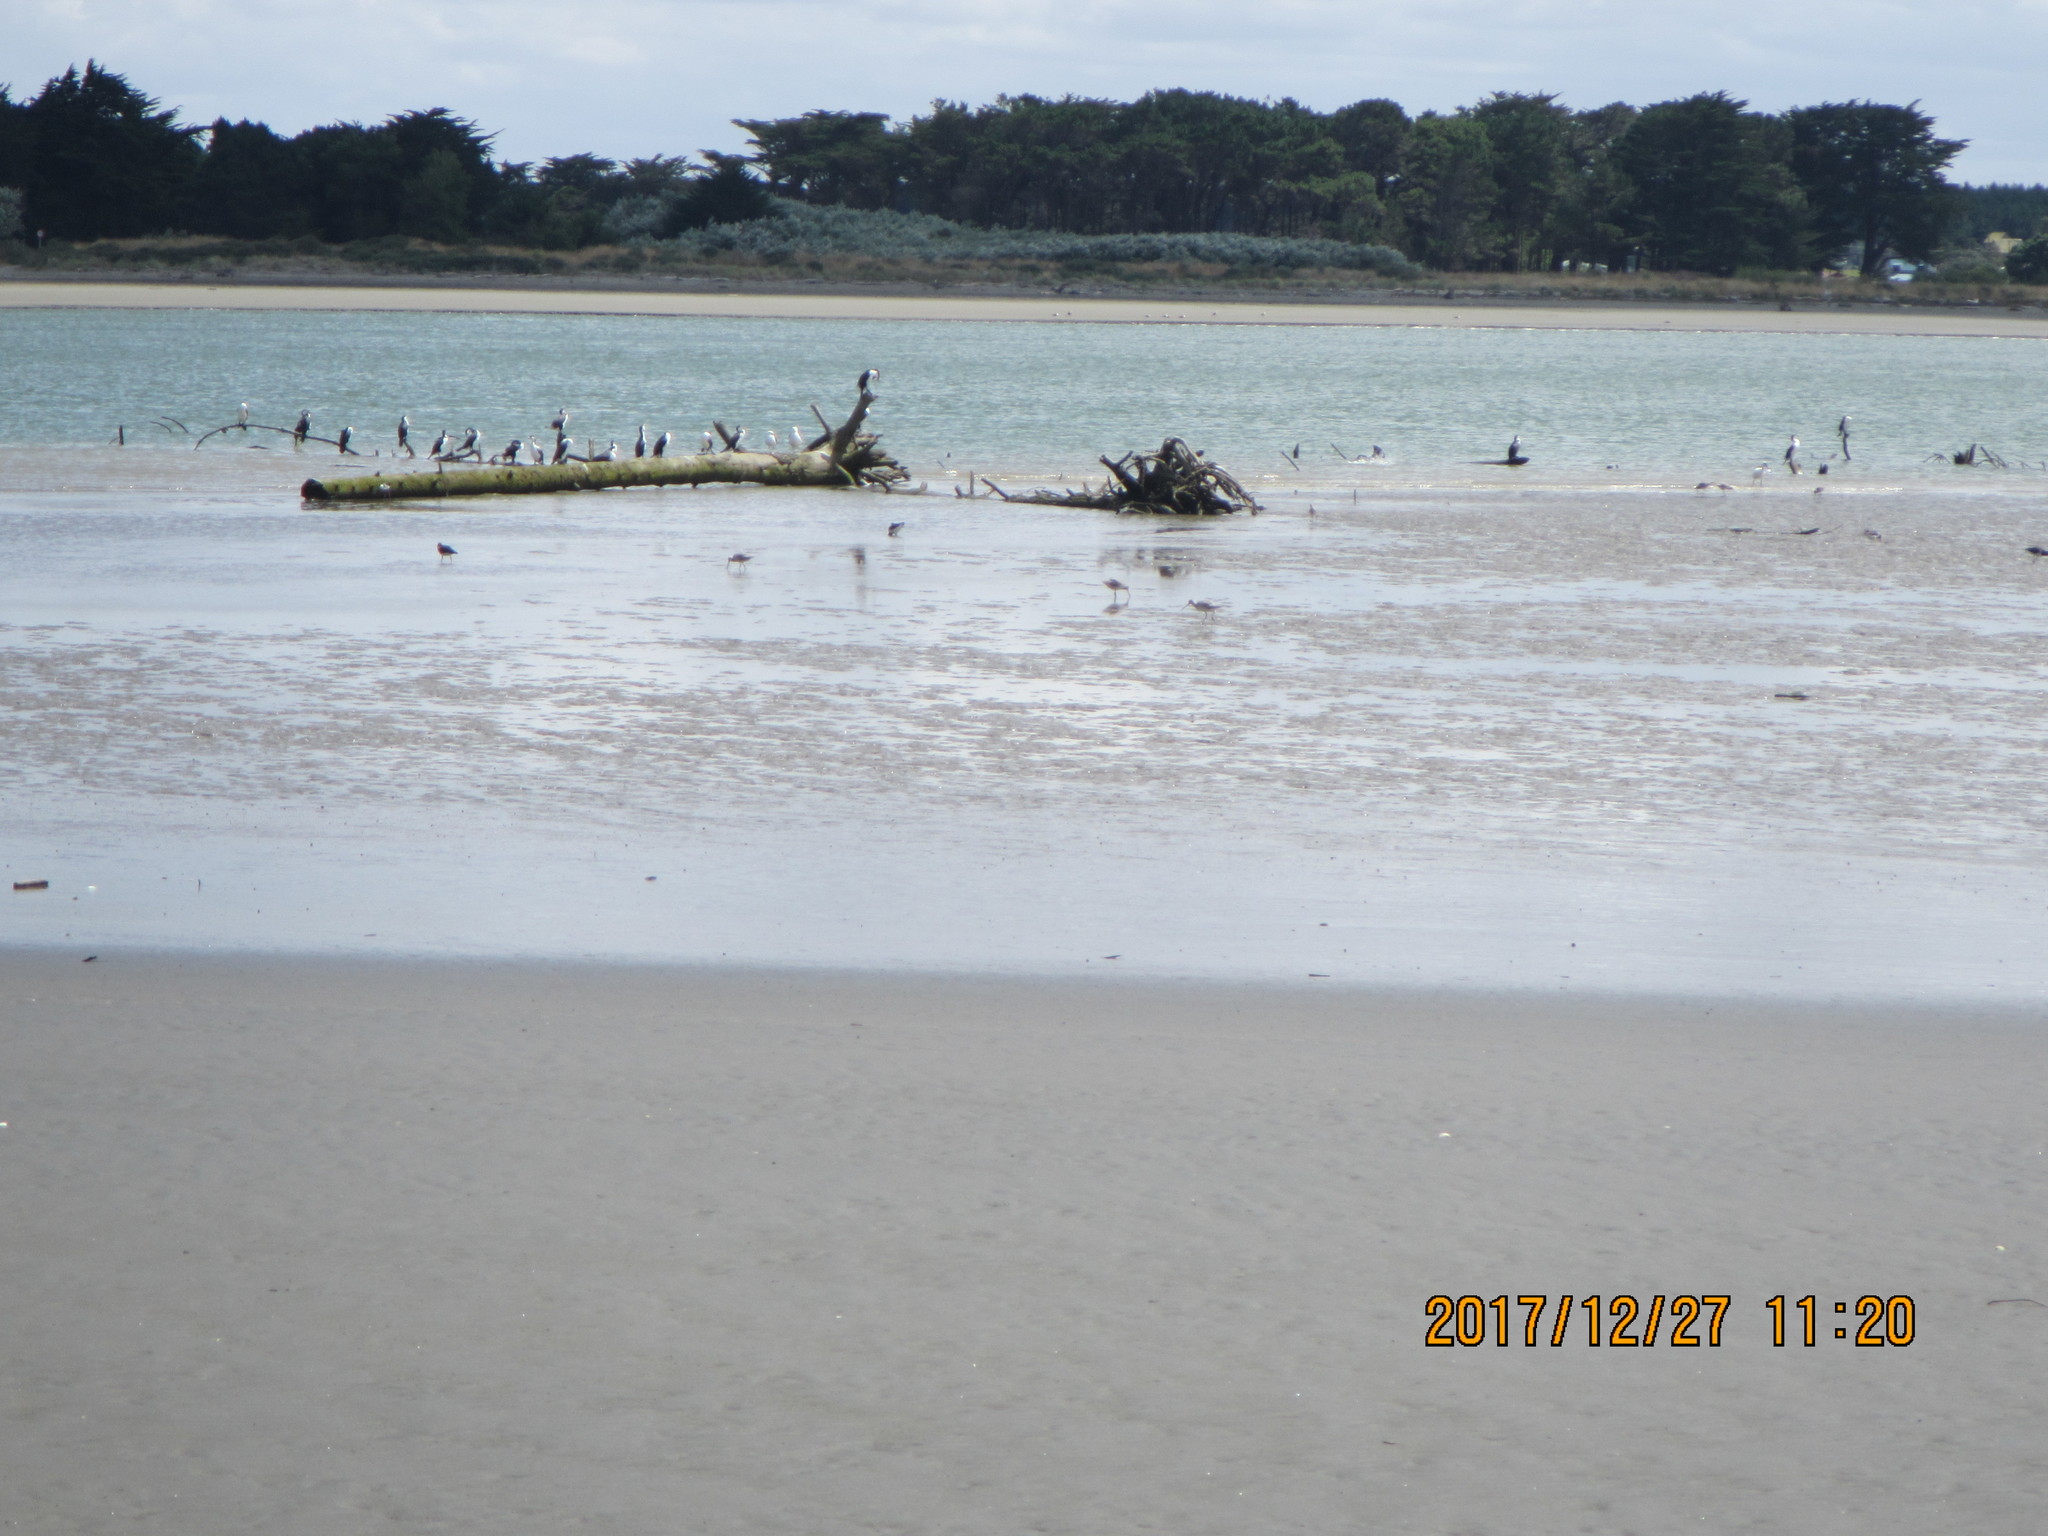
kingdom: Animalia
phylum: Chordata
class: Aves
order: Suliformes
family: Phalacrocoracidae
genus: Phalacrocorax
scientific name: Phalacrocorax varius
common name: Pied cormorant
